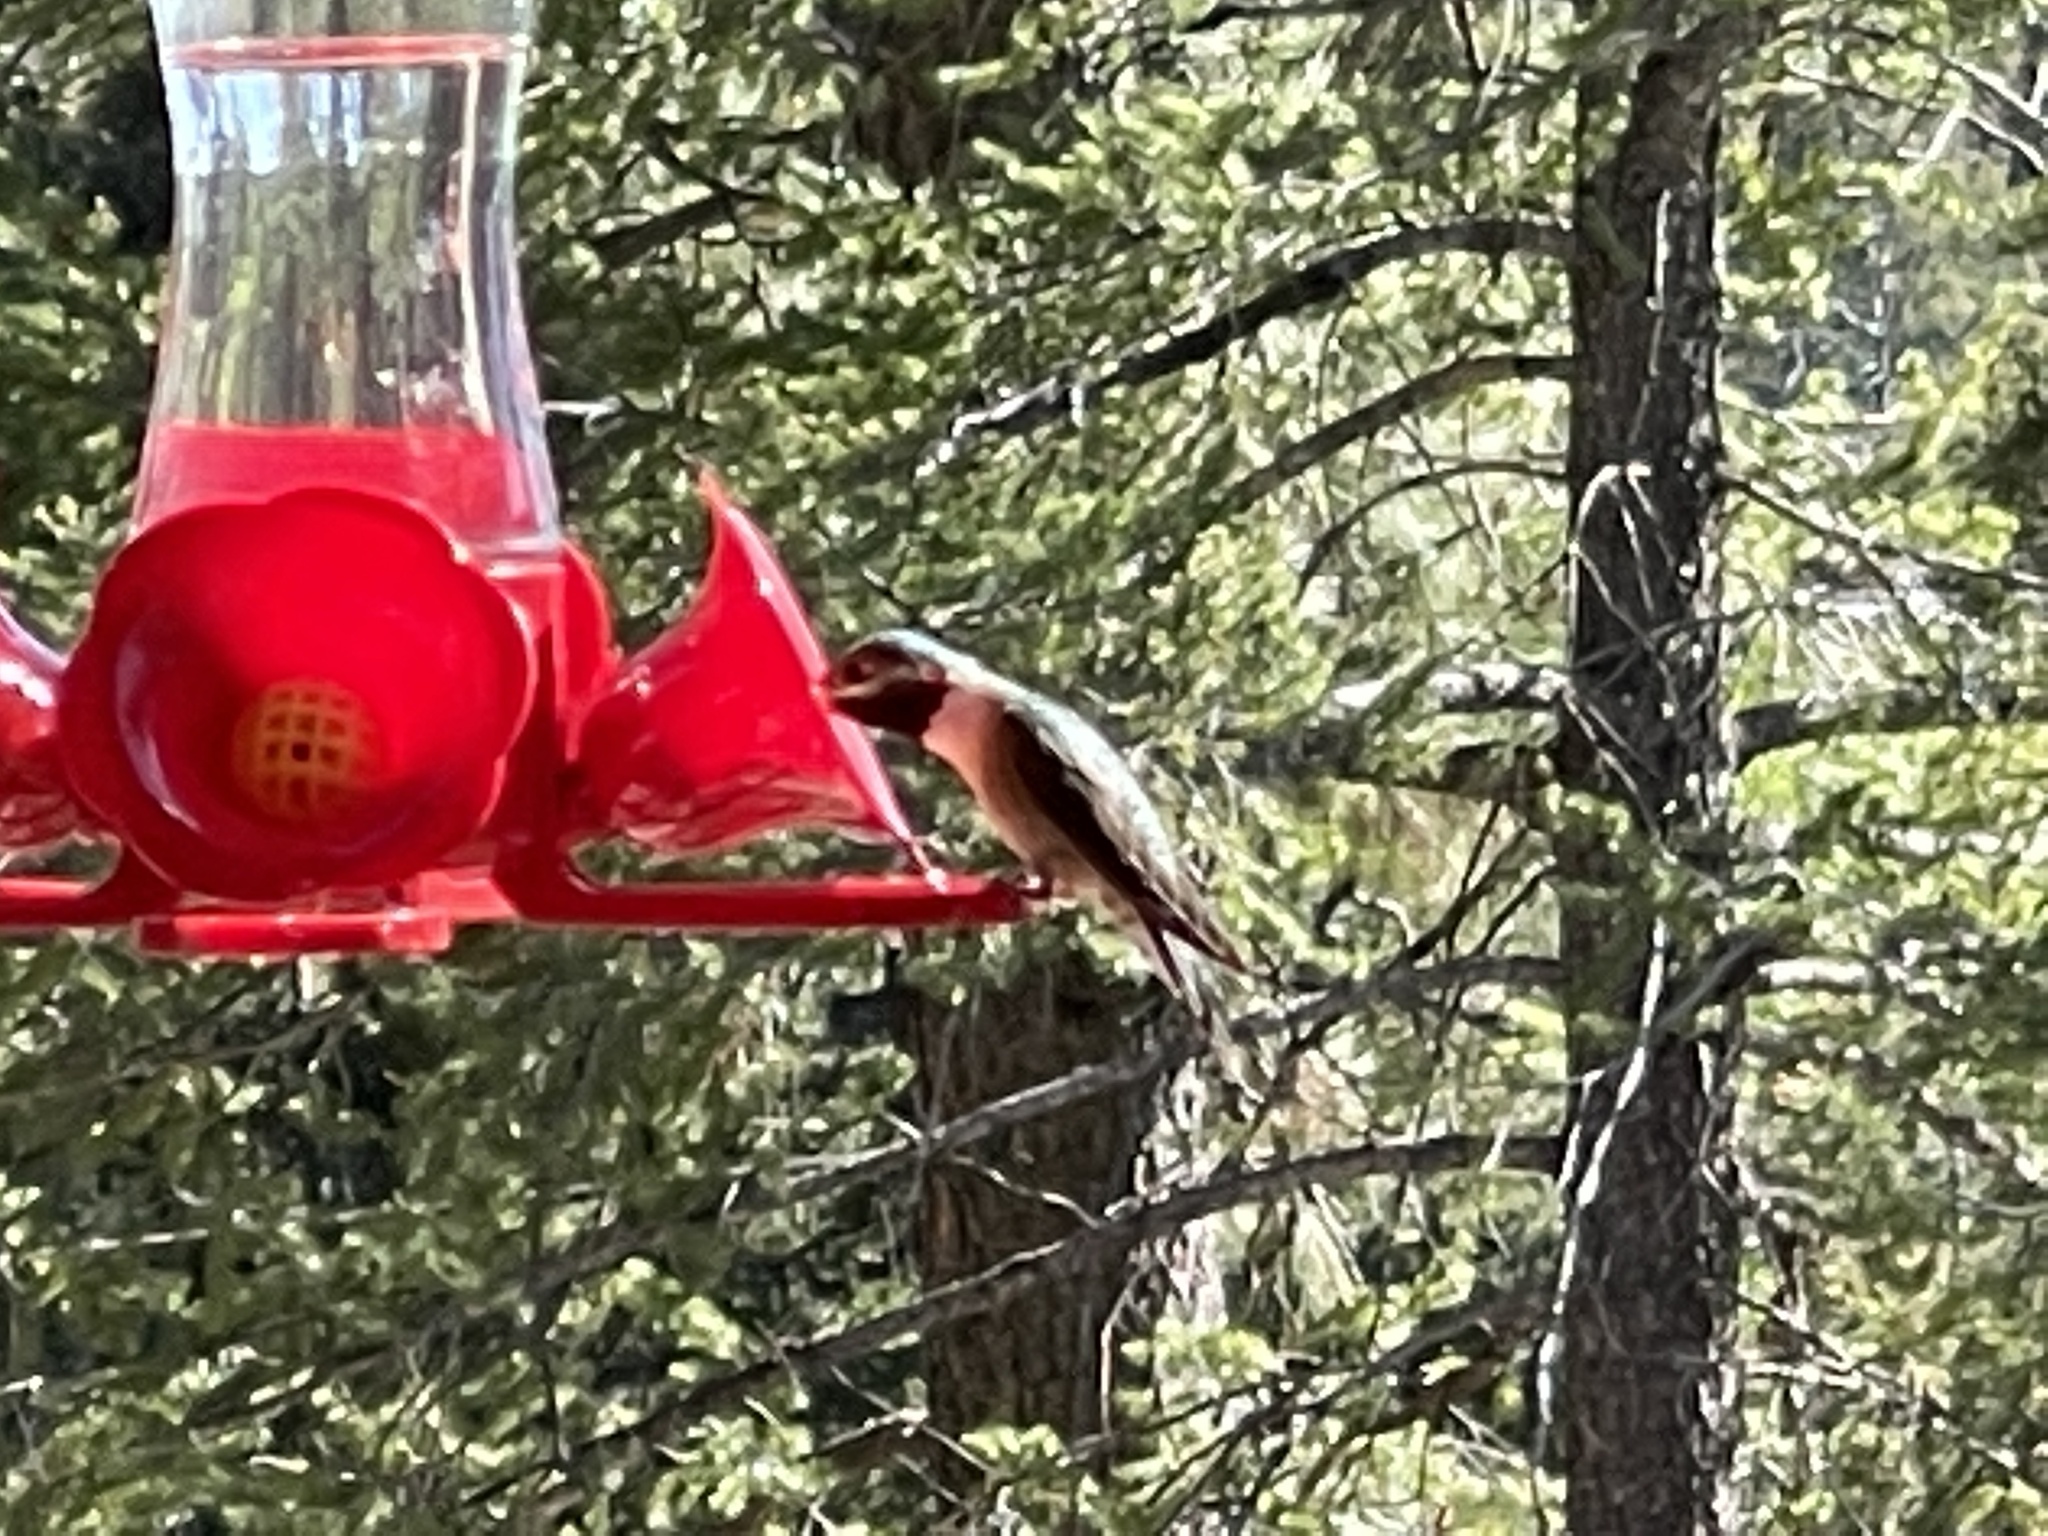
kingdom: Animalia
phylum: Chordata
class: Aves
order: Apodiformes
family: Trochilidae
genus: Selasphorus
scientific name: Selasphorus platycercus
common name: Broad-tailed hummingbird
